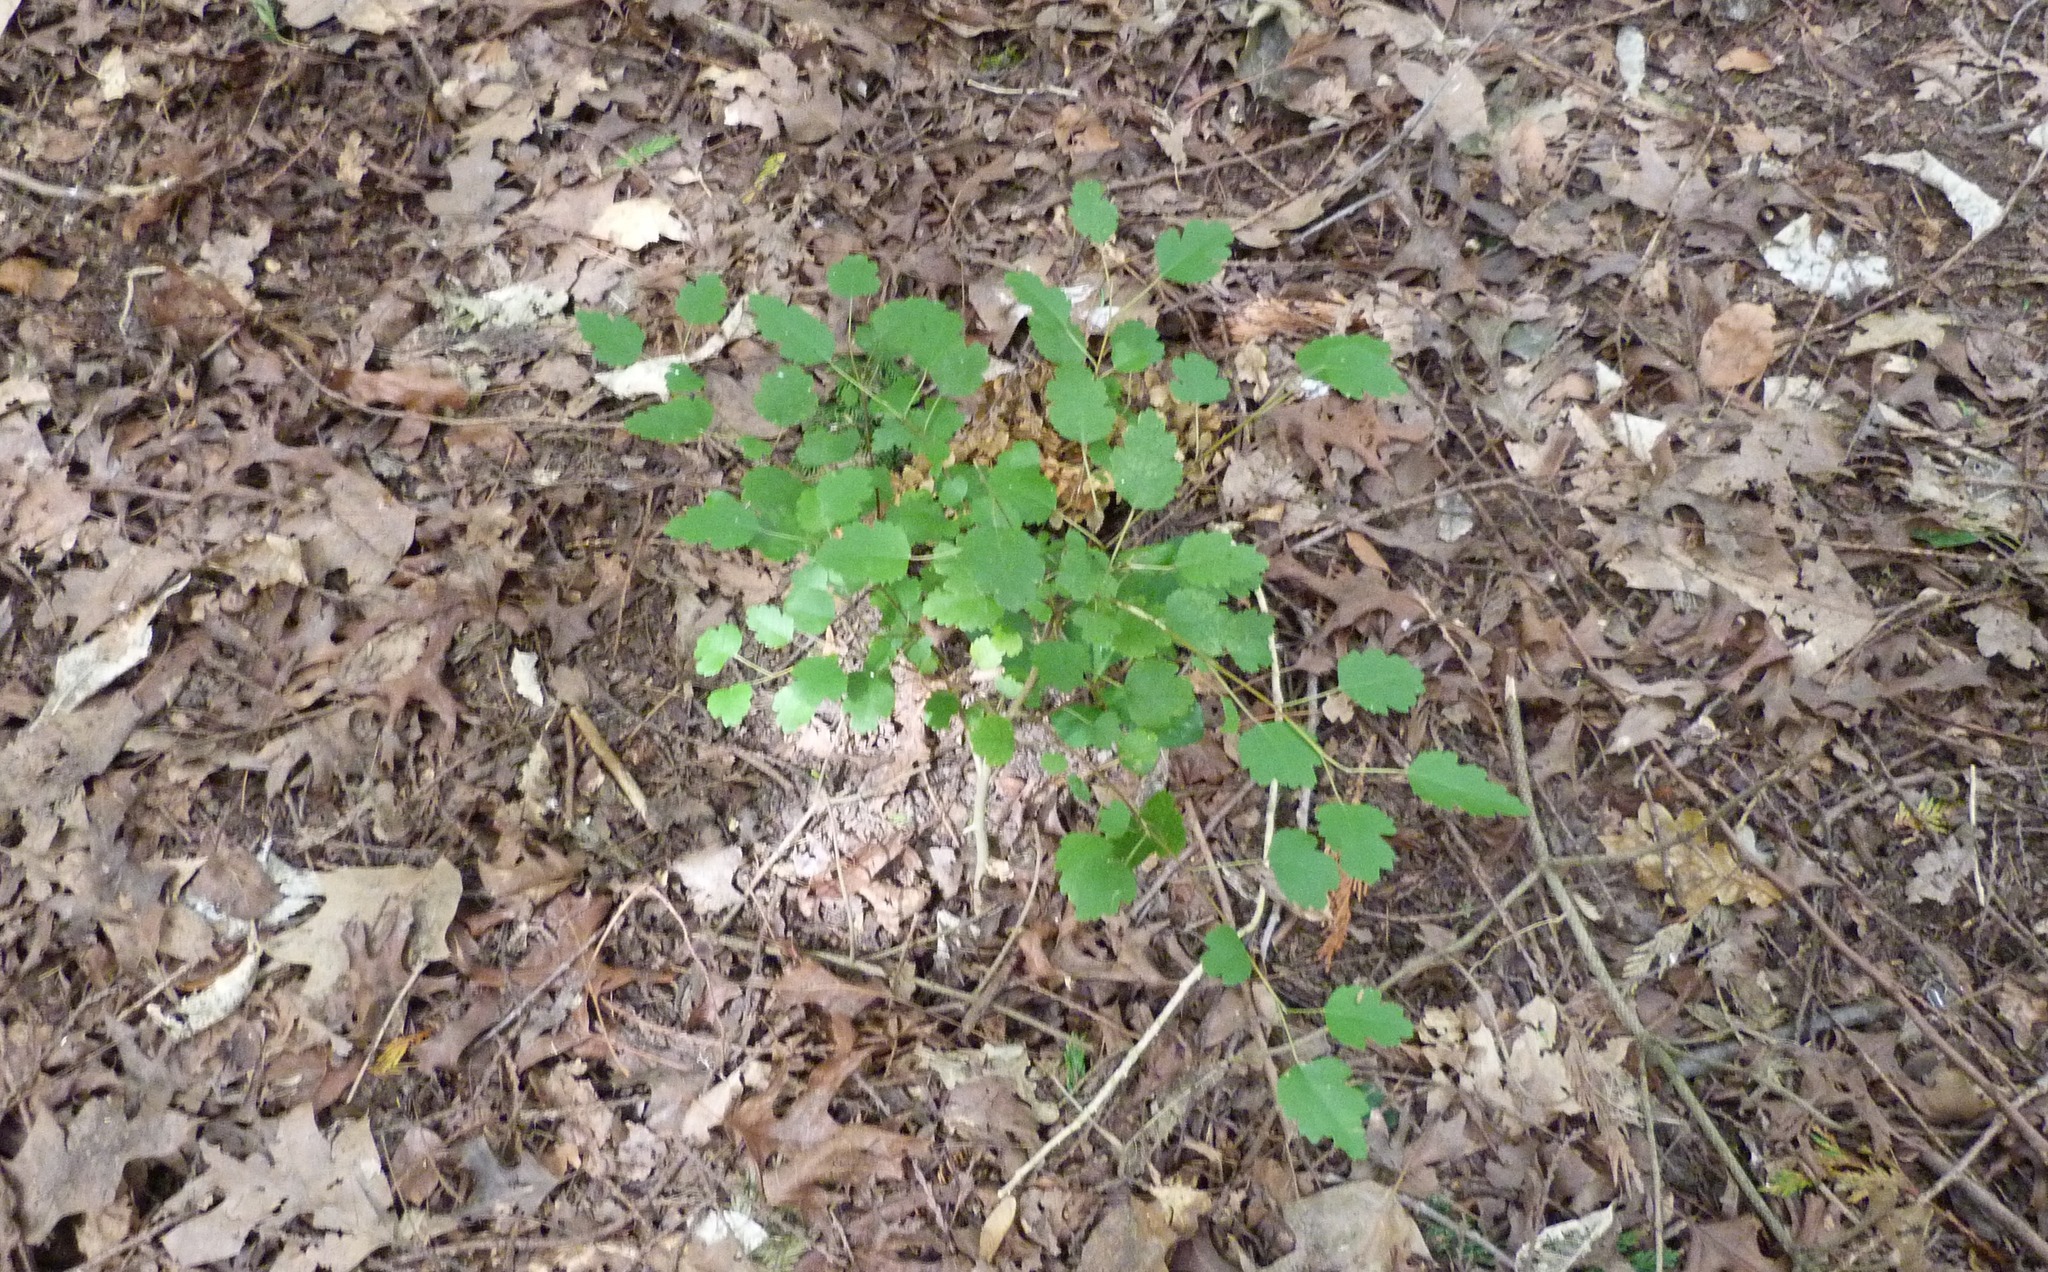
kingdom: Plantae
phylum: Tracheophyta
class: Magnoliopsida
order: Malvales
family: Malvaceae
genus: Plagianthus
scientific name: Plagianthus regius
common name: Manatu
